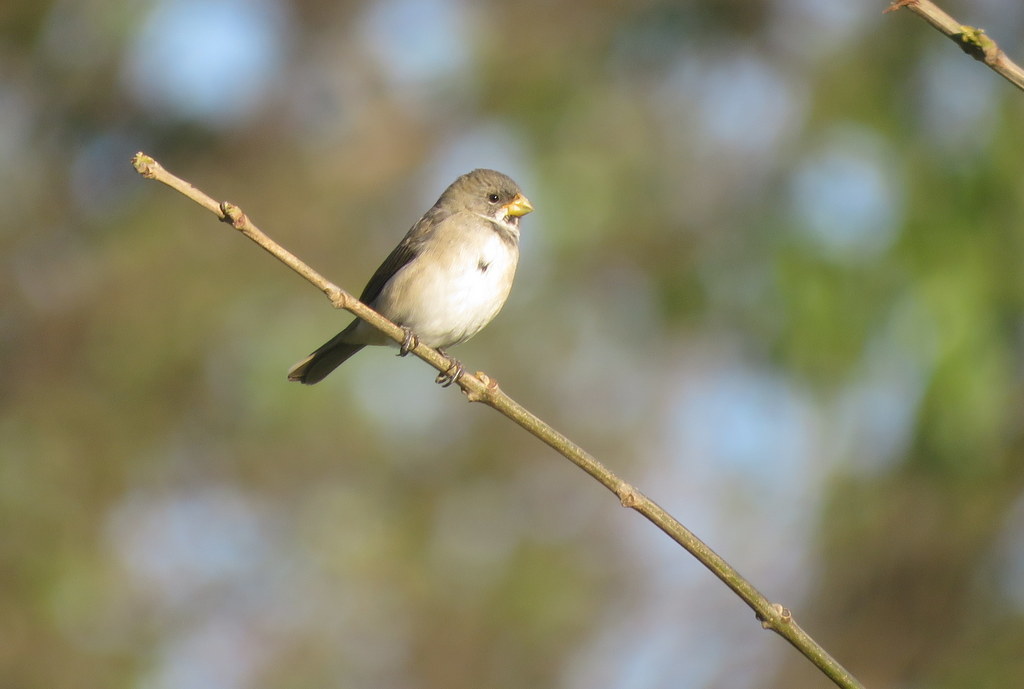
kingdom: Animalia
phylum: Chordata
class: Aves
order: Passeriformes
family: Thraupidae
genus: Sporophila
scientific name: Sporophila caerulescens
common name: Double-collared seedeater
